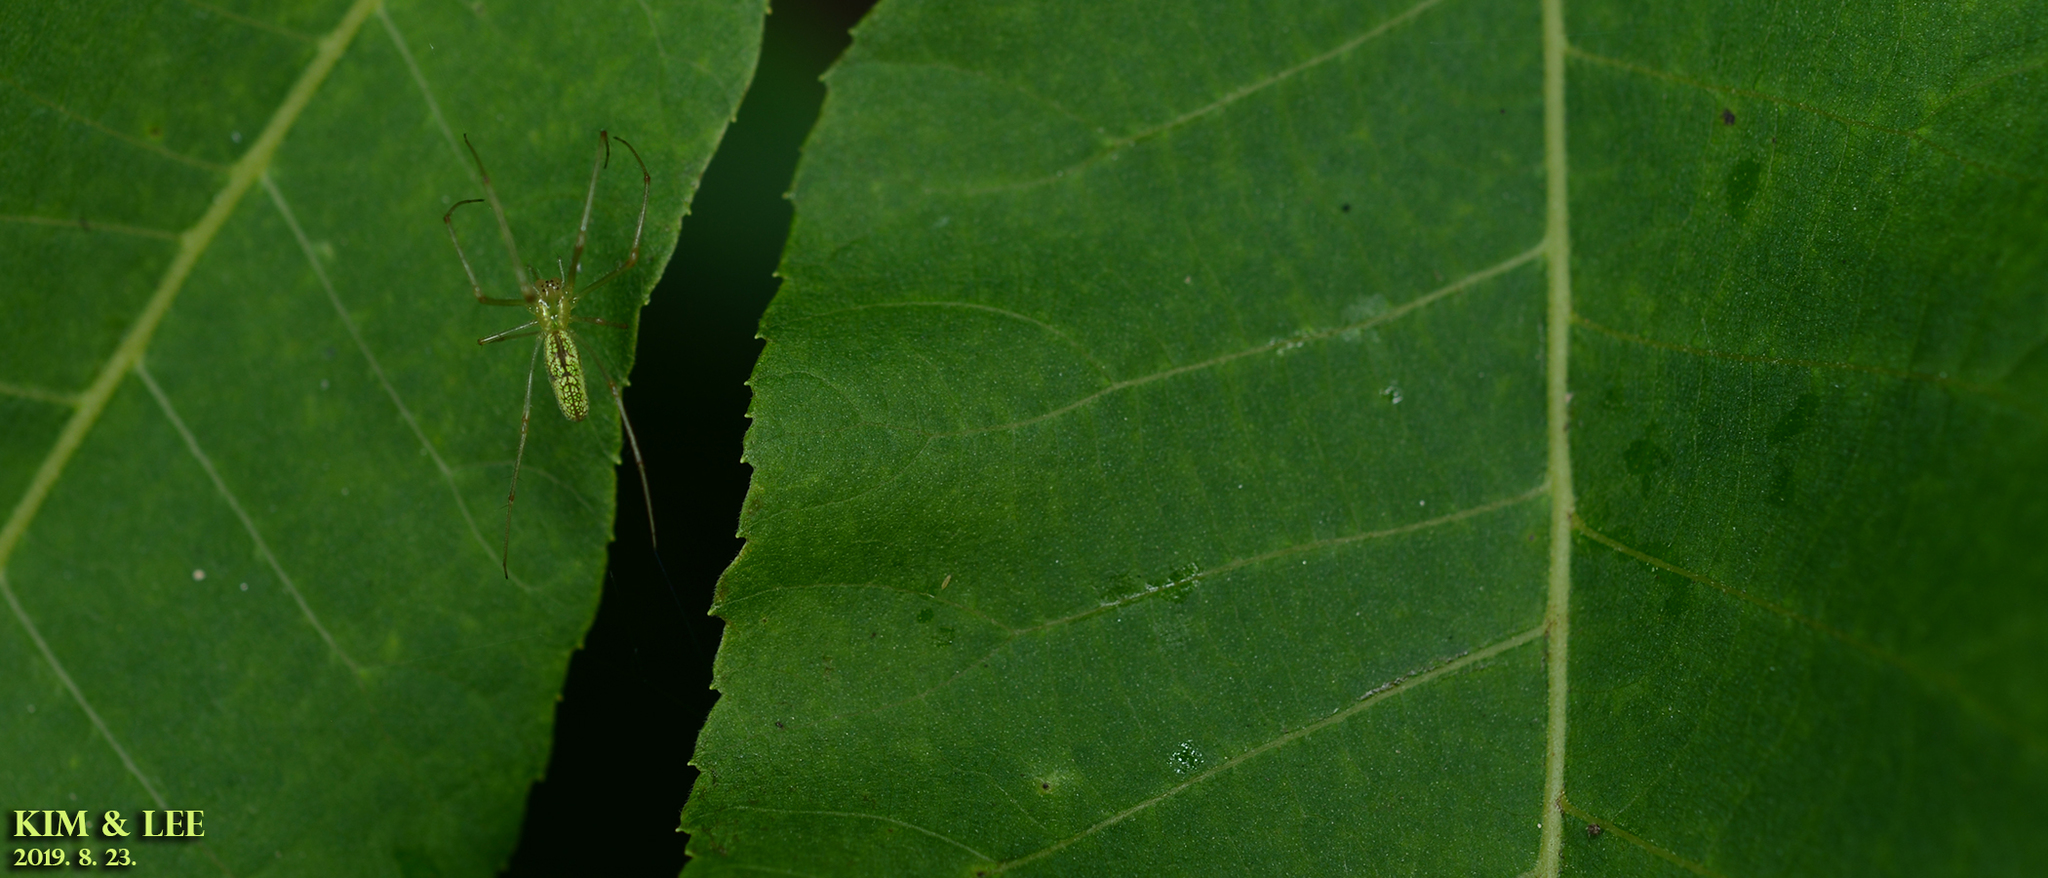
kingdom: Animalia
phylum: Arthropoda
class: Arachnida
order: Araneae
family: Tetragnathidae
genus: Tetragnatha
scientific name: Tetragnatha yesoensis
